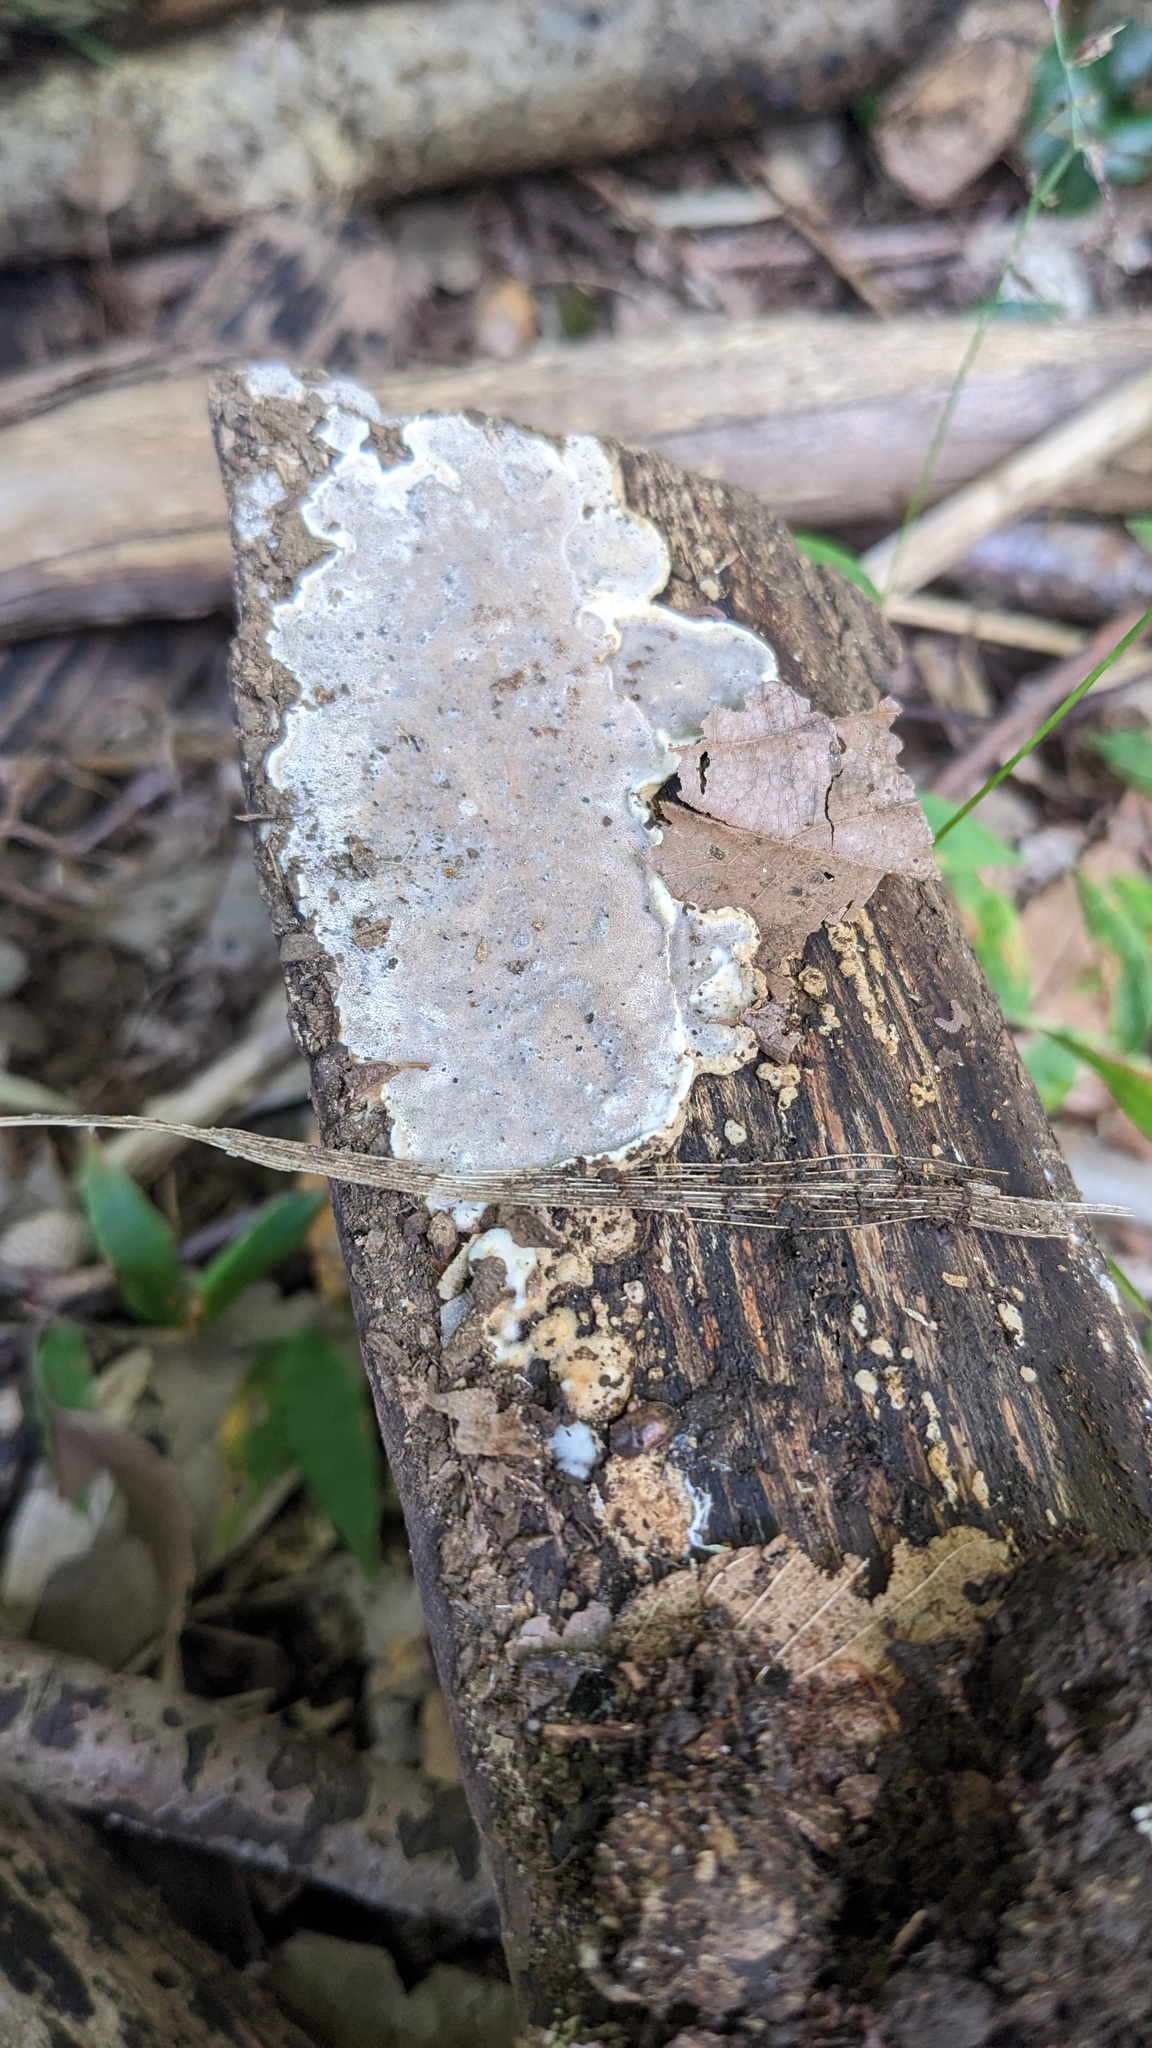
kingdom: Fungi
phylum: Basidiomycota
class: Agaricomycetes
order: Auriculariales
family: Auriculariaceae
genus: Heterochaete
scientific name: Heterochaete delicata
